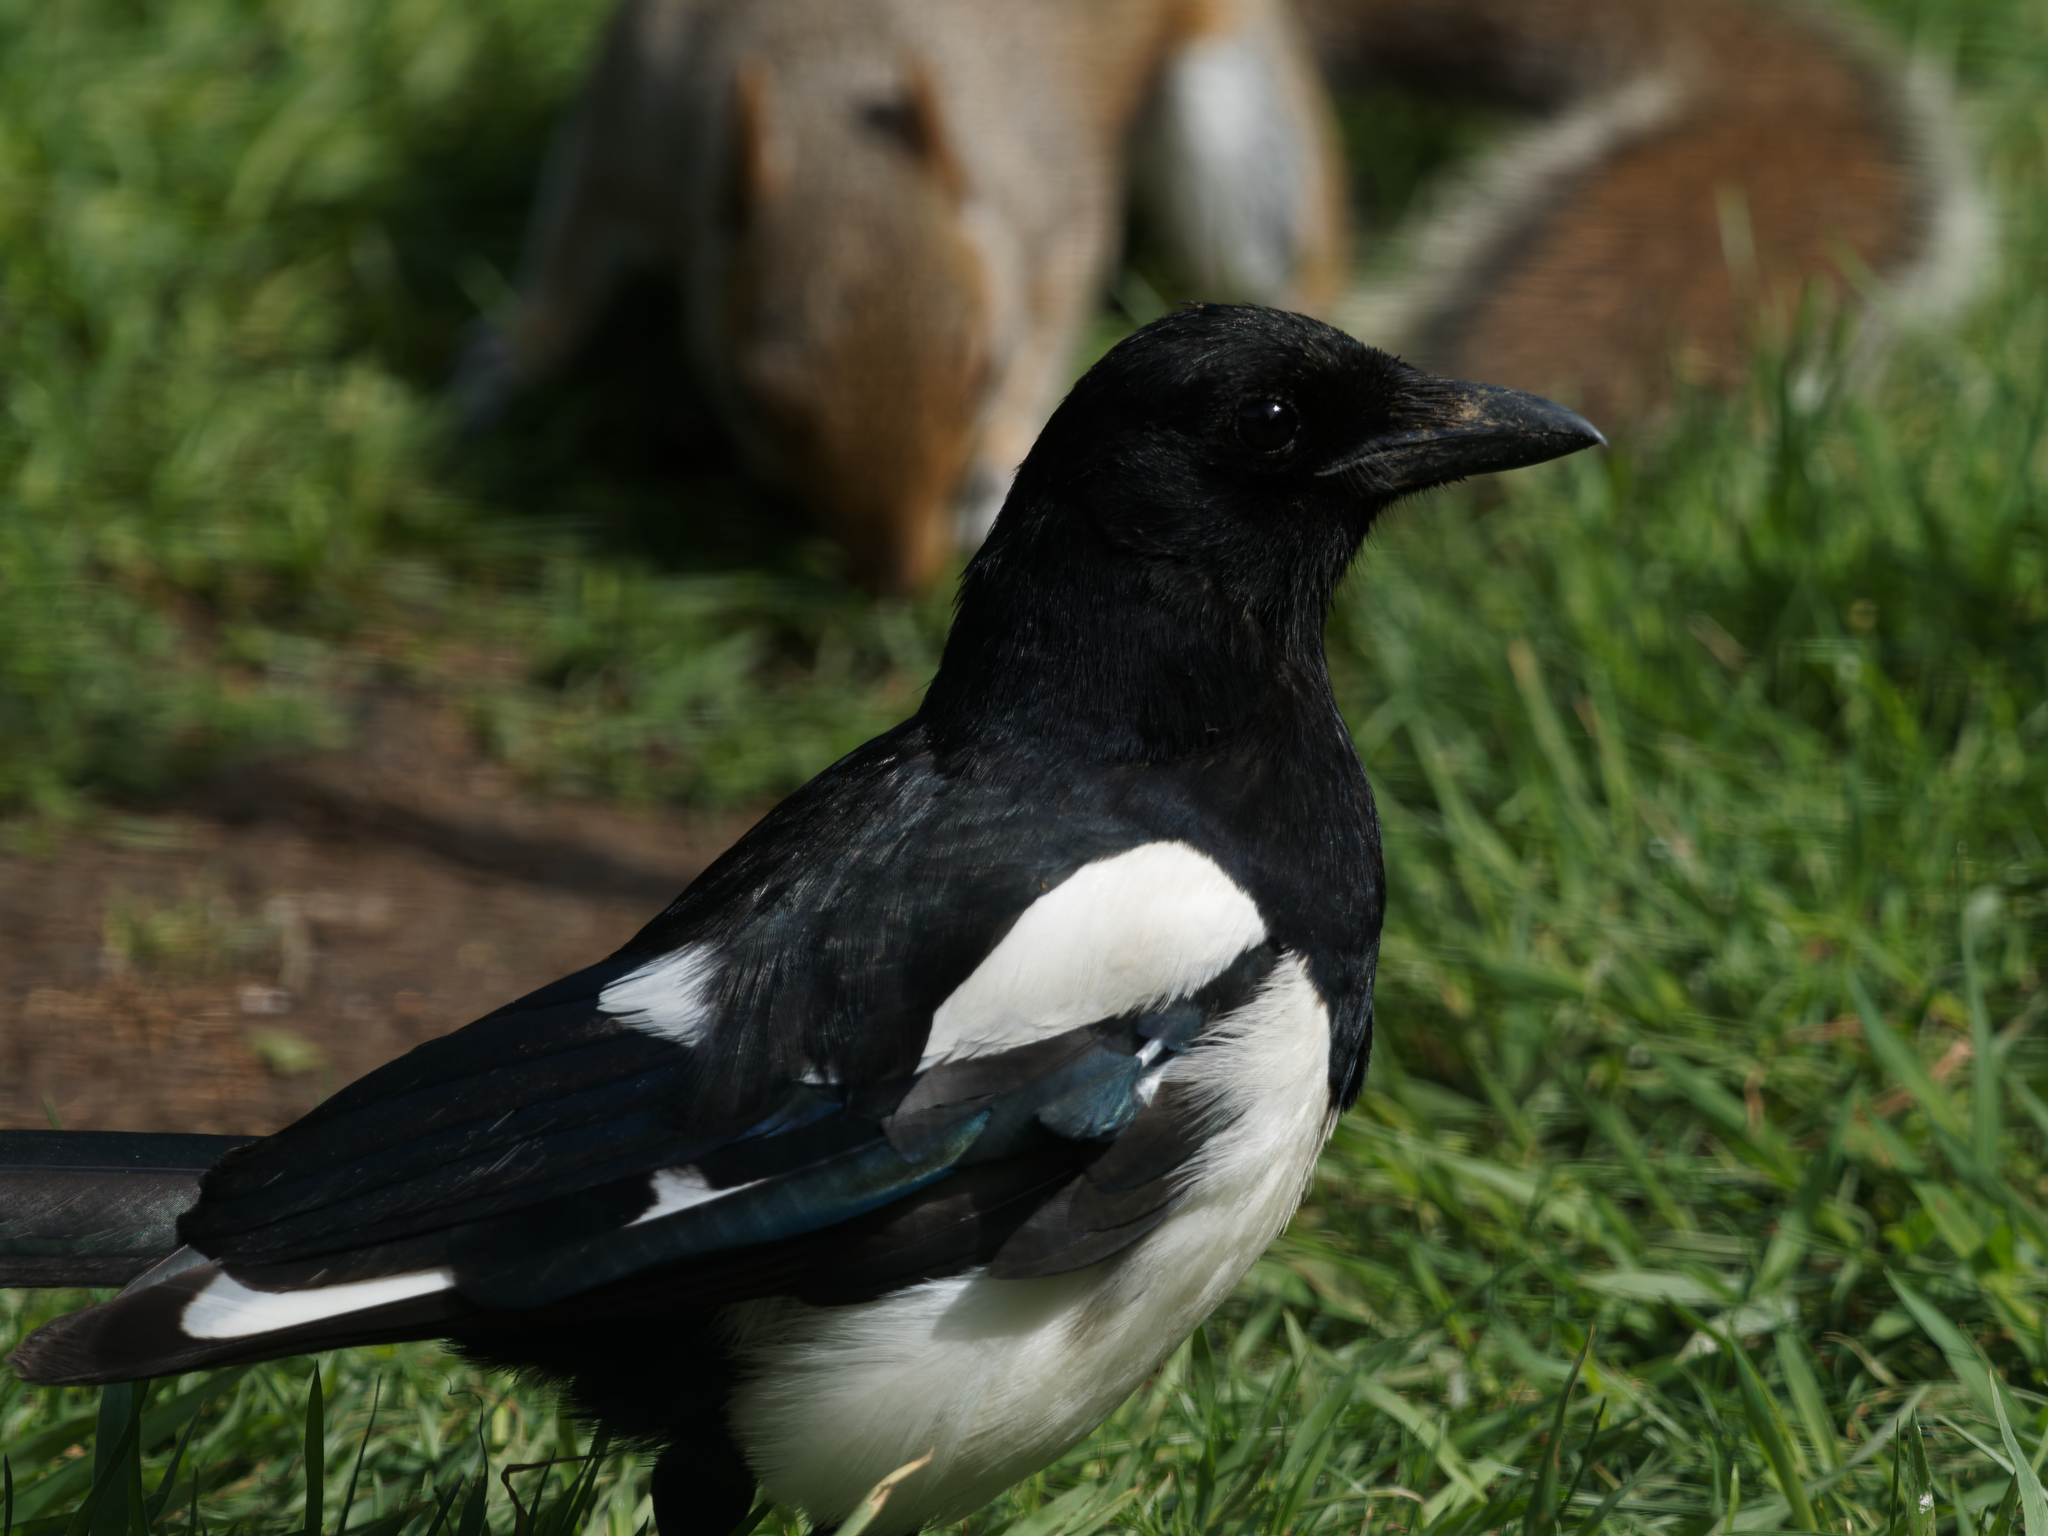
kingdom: Animalia
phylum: Chordata
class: Aves
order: Passeriformes
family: Corvidae
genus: Pica
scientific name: Pica pica
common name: Eurasian magpie
